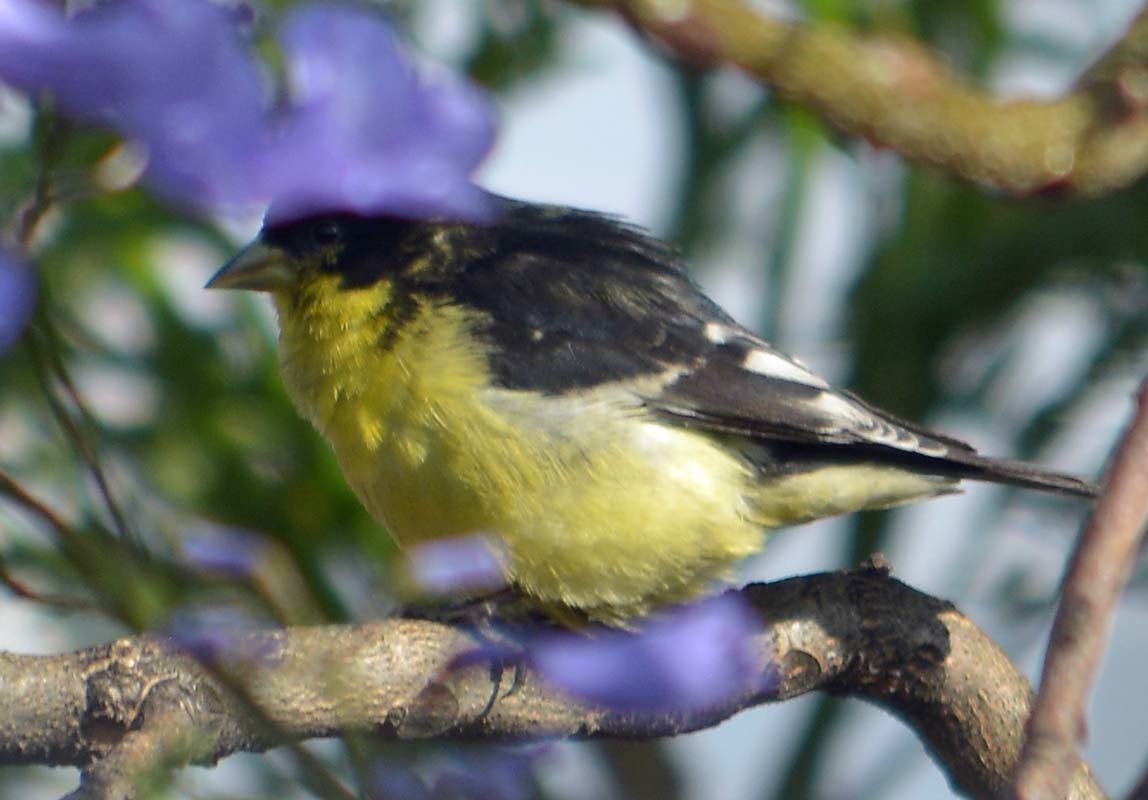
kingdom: Animalia
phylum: Chordata
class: Aves
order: Passeriformes
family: Fringillidae
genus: Spinus
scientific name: Spinus psaltria
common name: Lesser goldfinch
